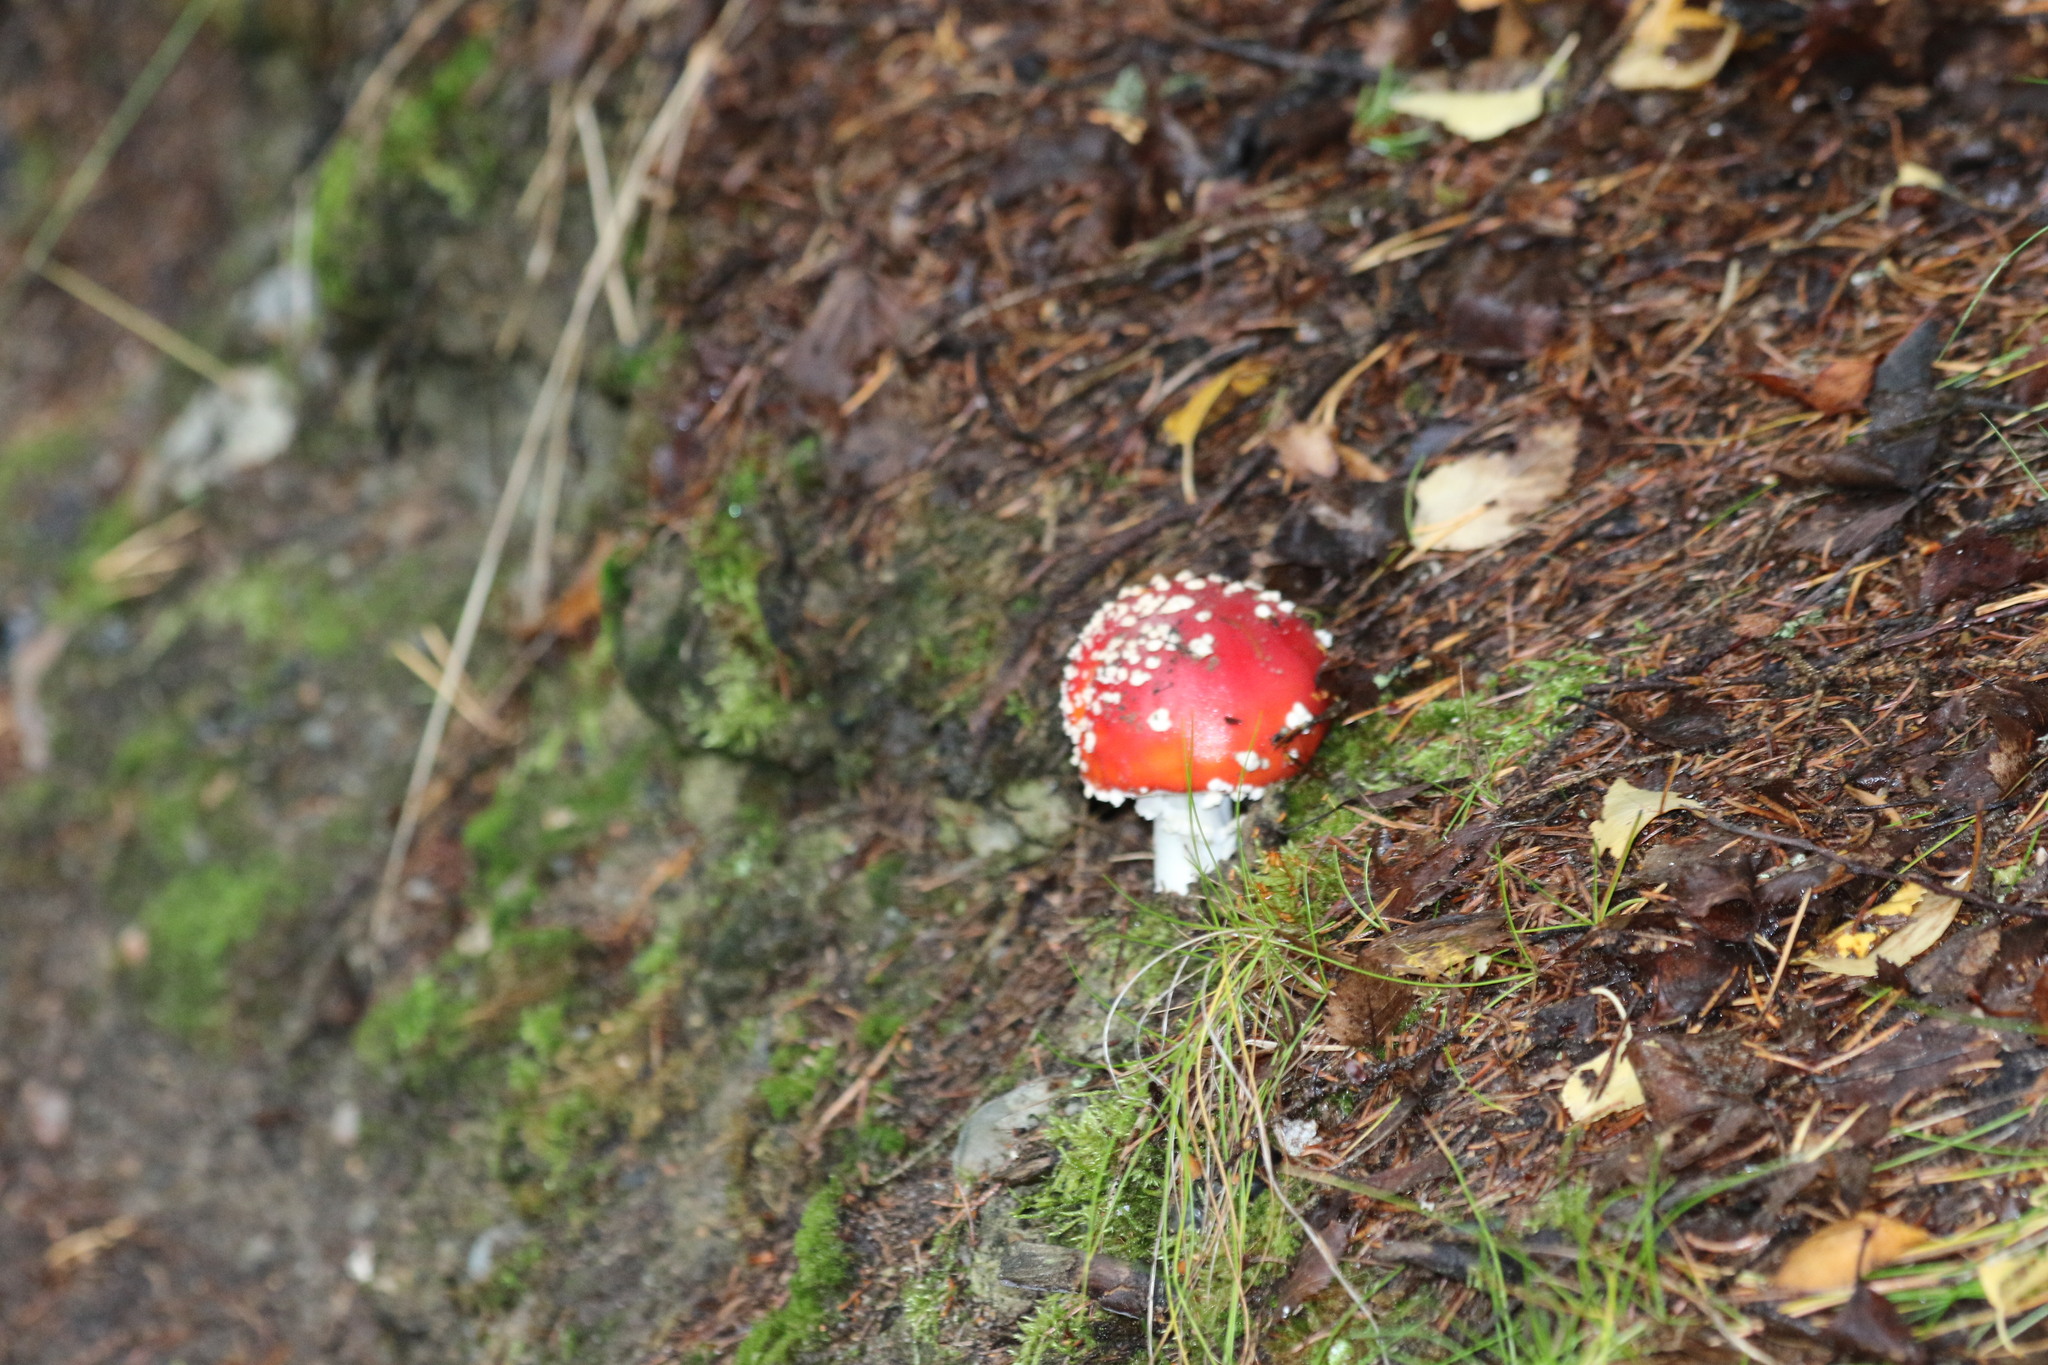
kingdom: Fungi
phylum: Basidiomycota
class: Agaricomycetes
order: Agaricales
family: Amanitaceae
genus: Amanita
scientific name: Amanita muscaria
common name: Fly agaric
